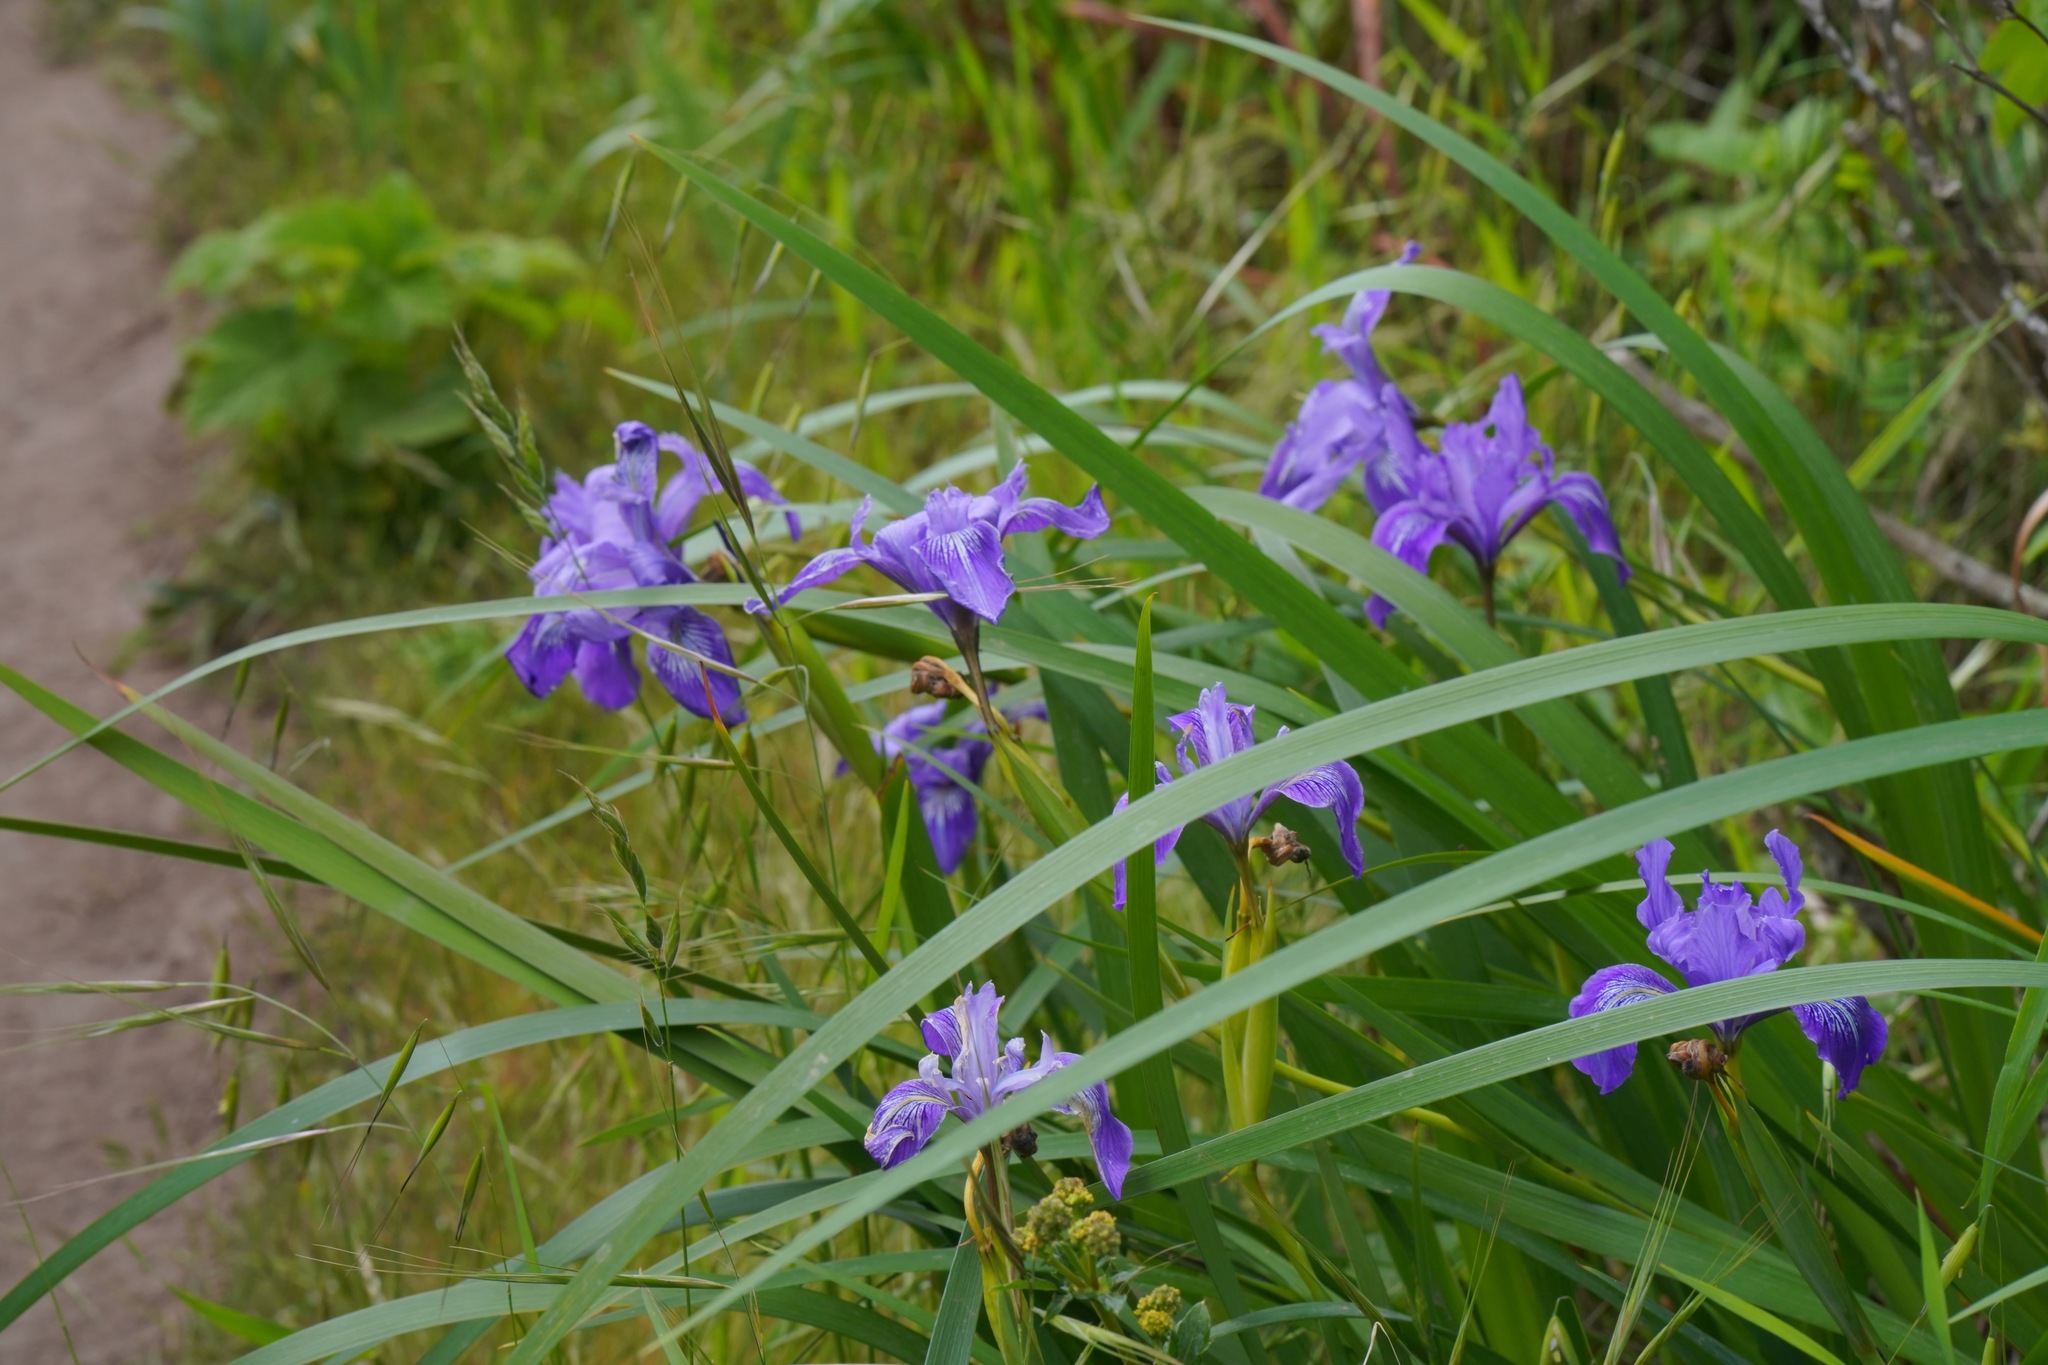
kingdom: Plantae
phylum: Tracheophyta
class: Liliopsida
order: Asparagales
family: Iridaceae
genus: Iris
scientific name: Iris douglasiana
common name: Marin iris
